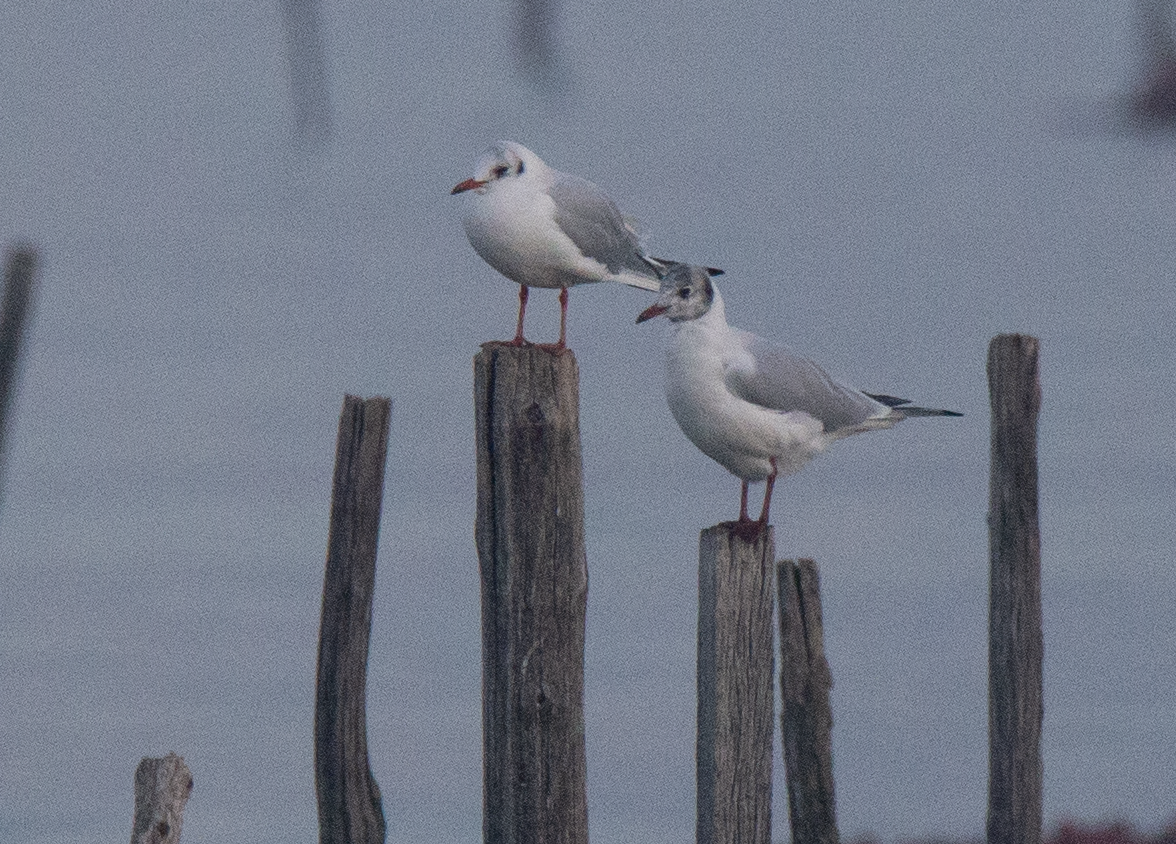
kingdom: Animalia
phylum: Chordata
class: Aves
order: Charadriiformes
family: Laridae
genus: Chroicocephalus
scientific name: Chroicocephalus ridibundus
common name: Black-headed gull
